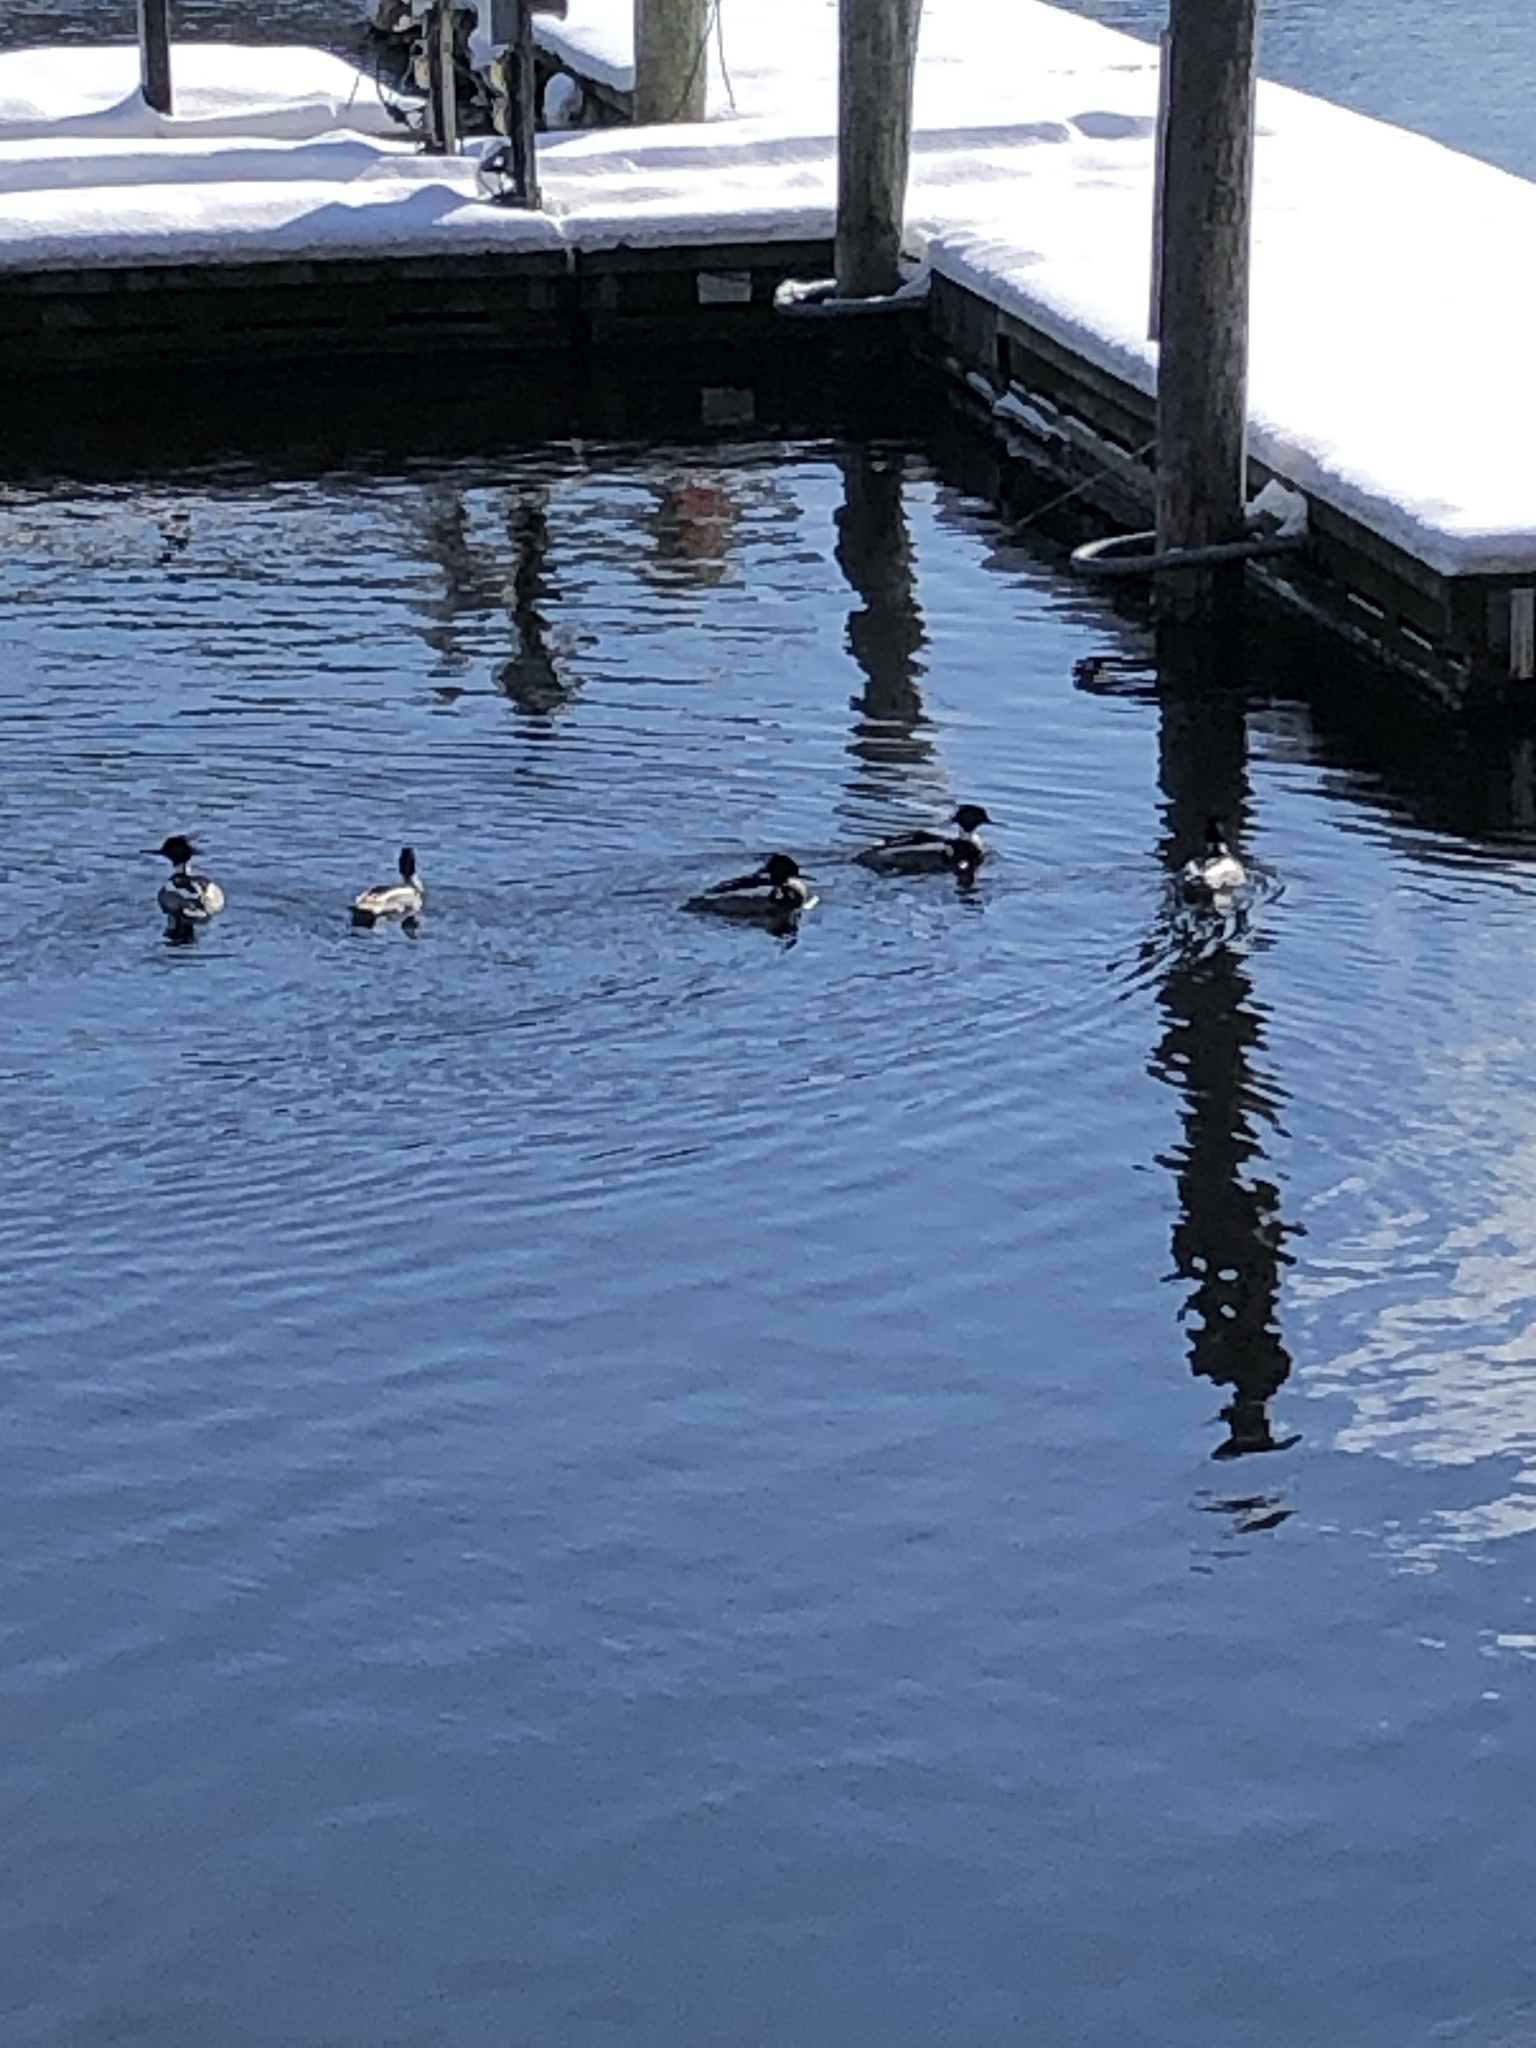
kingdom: Animalia
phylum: Chordata
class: Aves
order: Anseriformes
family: Anatidae
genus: Mergus
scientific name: Mergus serrator
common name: Red-breasted merganser
